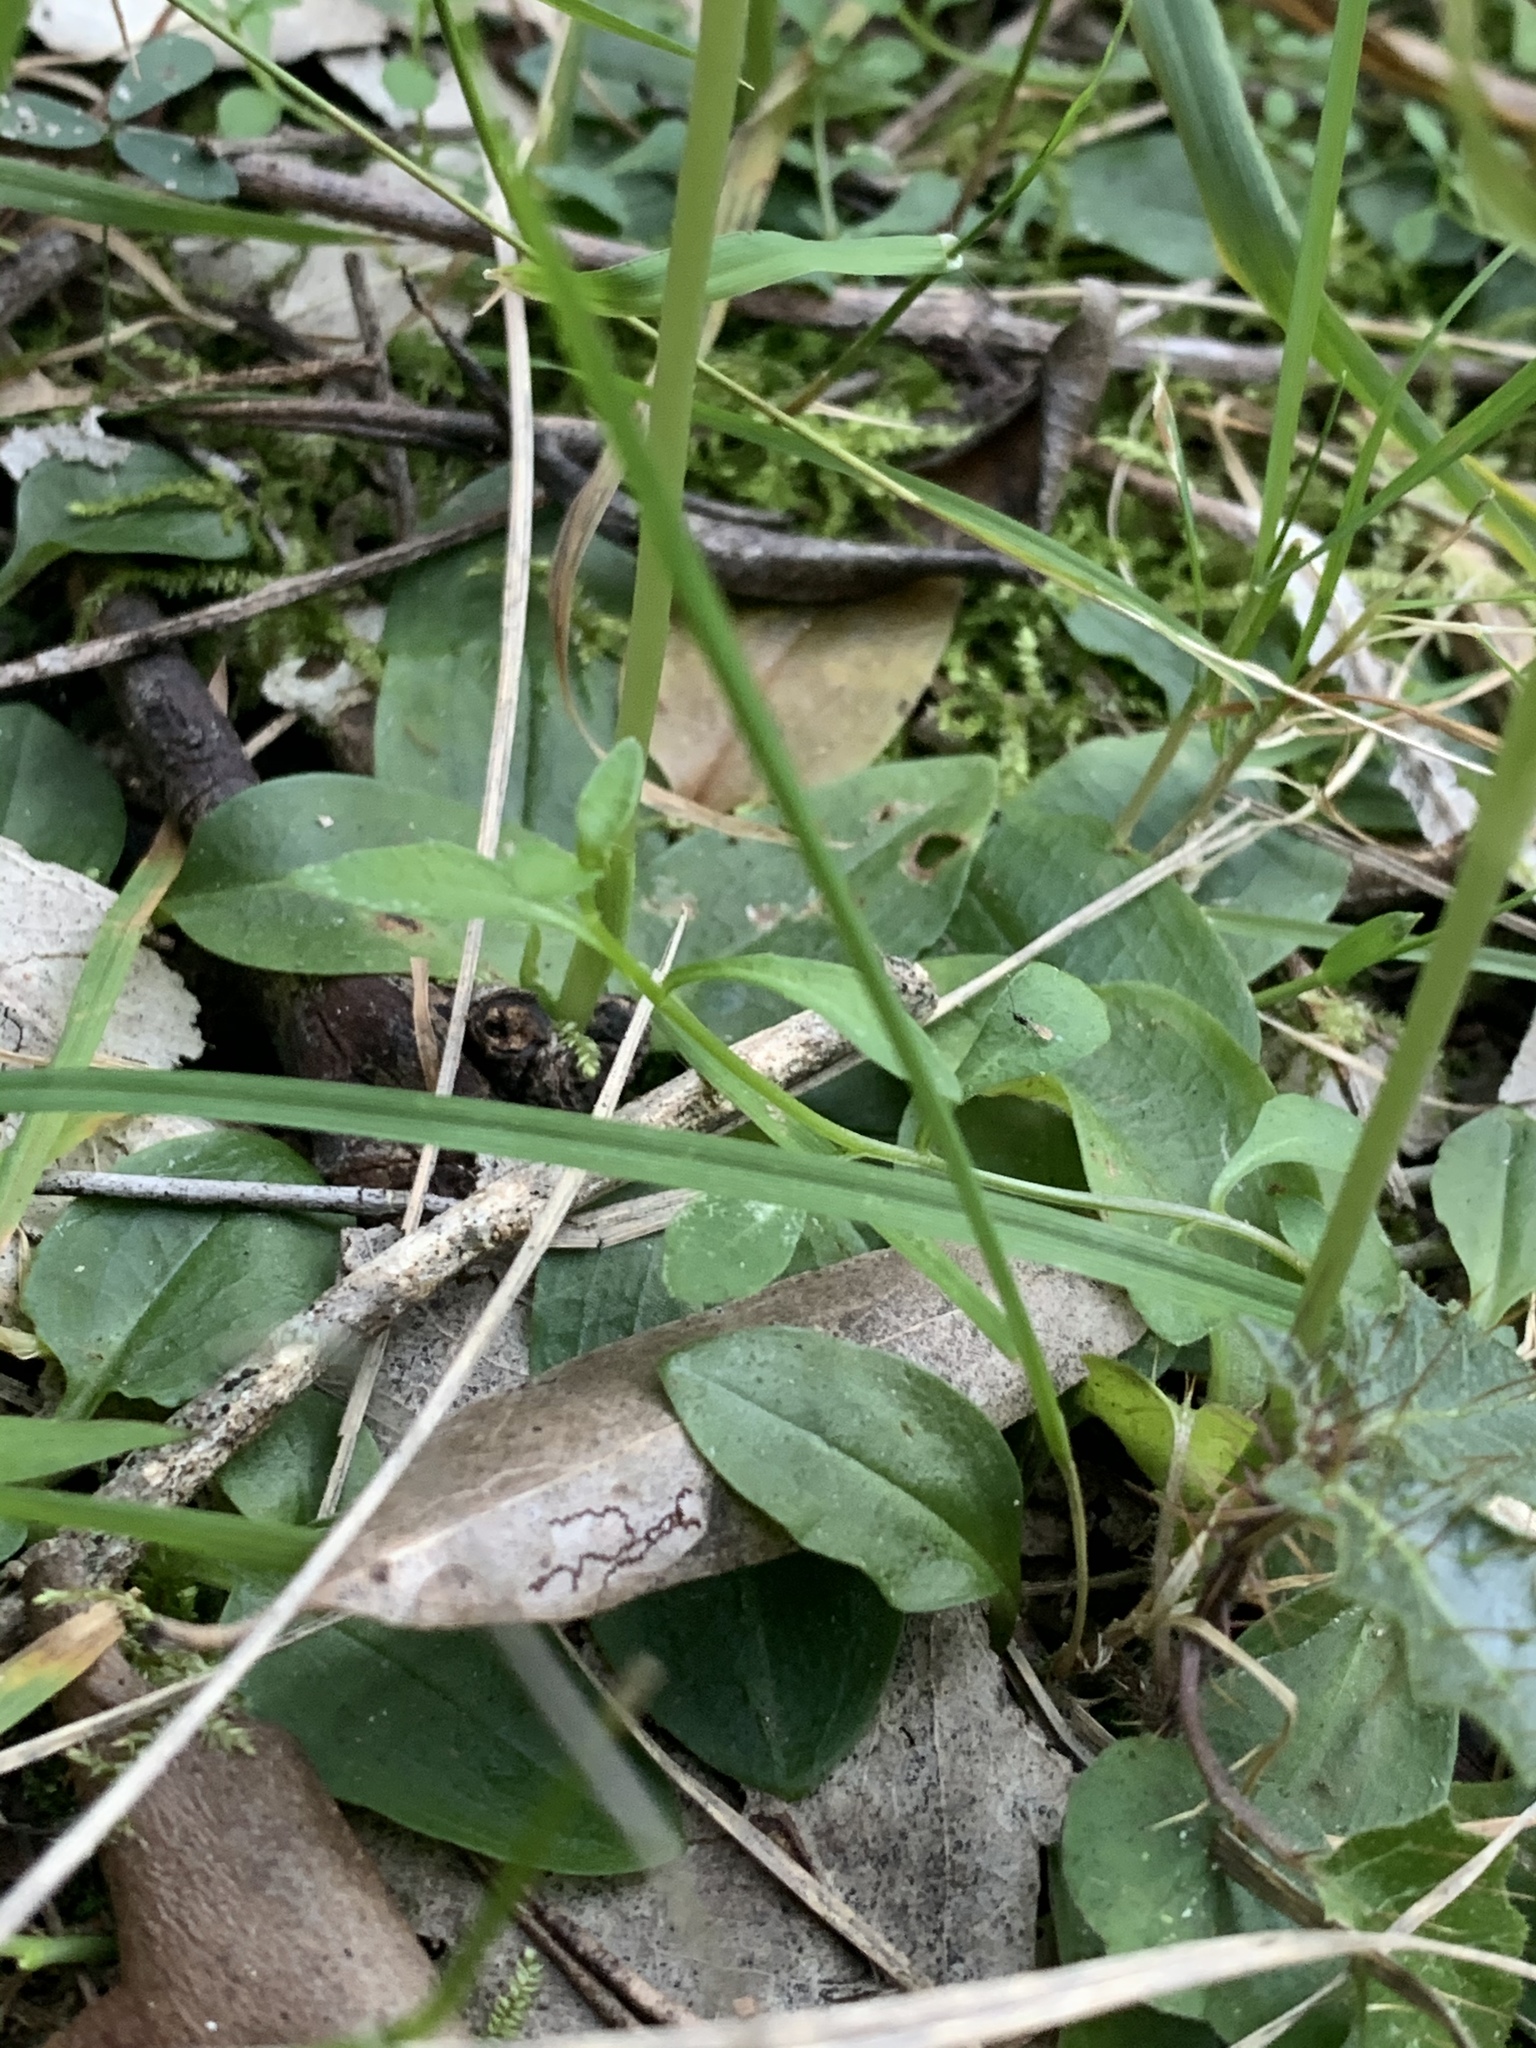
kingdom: Plantae
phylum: Tracheophyta
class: Liliopsida
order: Asparagales
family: Orchidaceae
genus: Pterostylis
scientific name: Pterostylis curta
